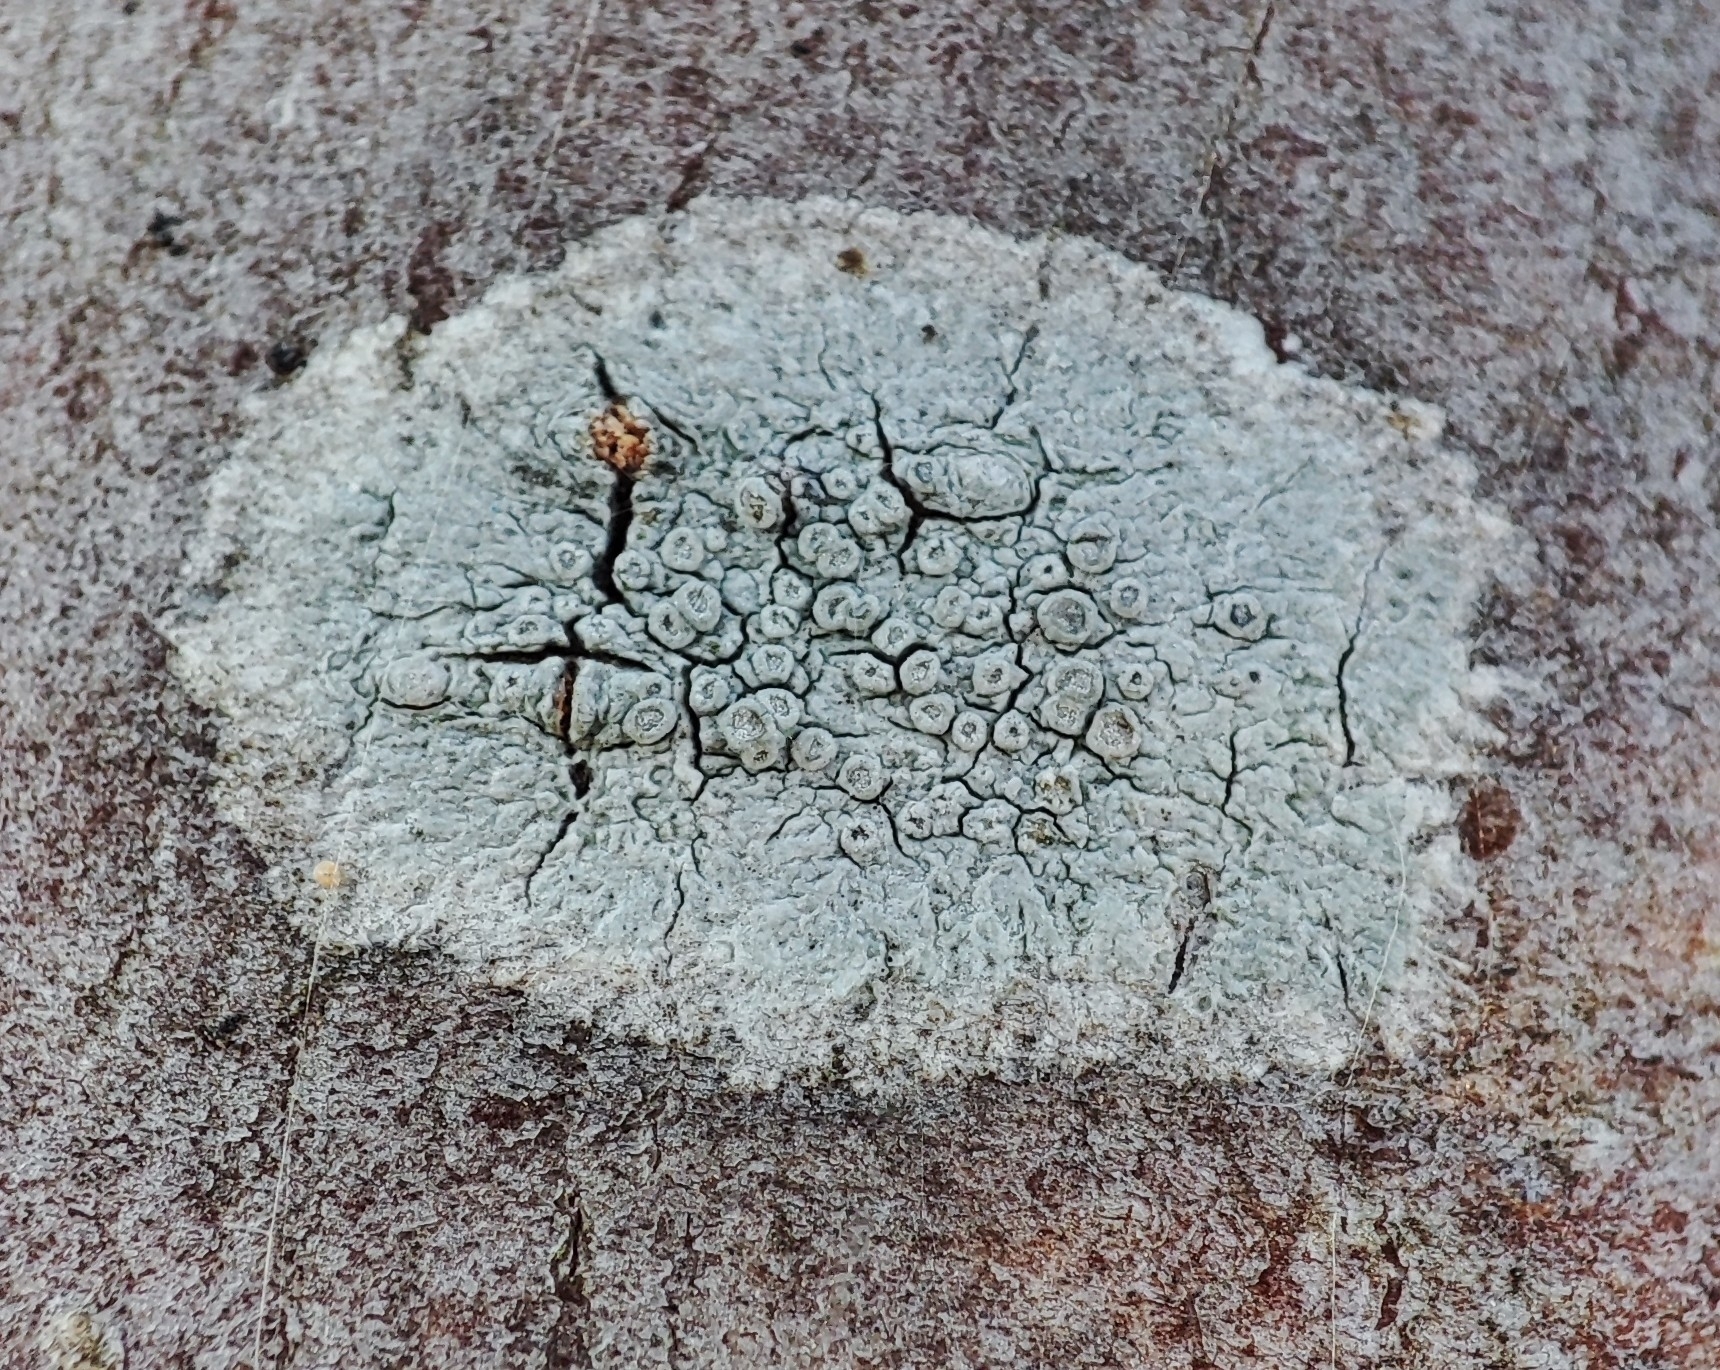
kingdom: Fungi
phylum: Ascomycota
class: Lecanoromycetes
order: Lecanorales
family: Lecanoraceae
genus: Glaucomaria
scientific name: Glaucomaria carpinea
